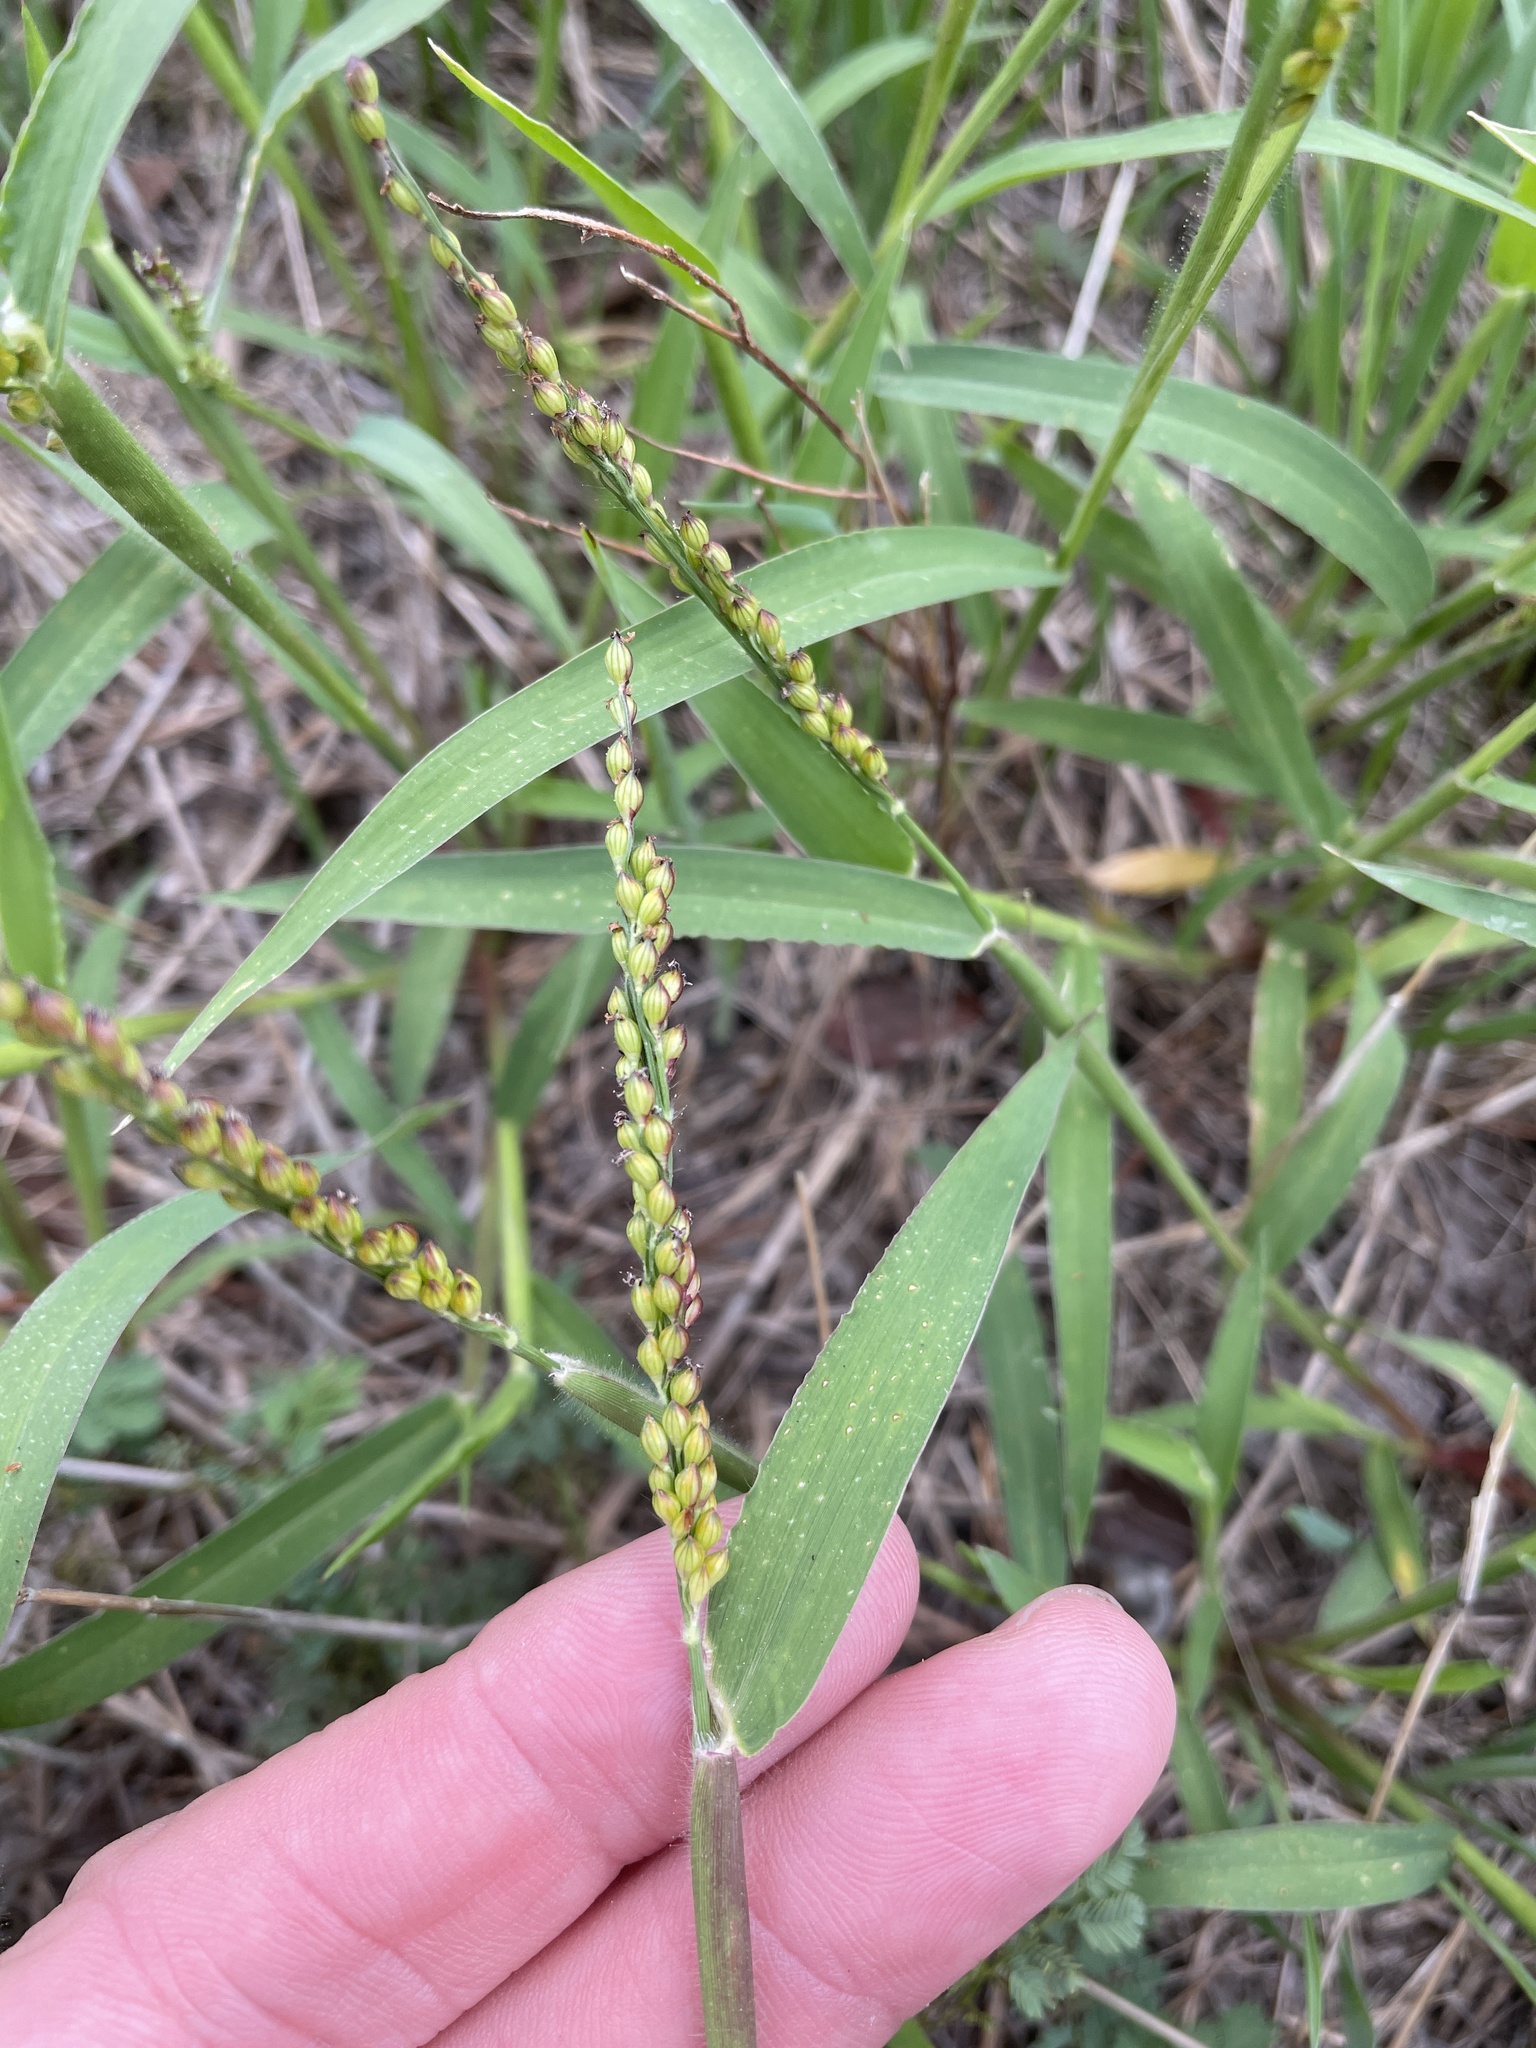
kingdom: Plantae
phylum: Tracheophyta
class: Liliopsida
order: Poales
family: Poaceae
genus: Urochloa
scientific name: Urochloa fusca
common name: Browntop signal grass
